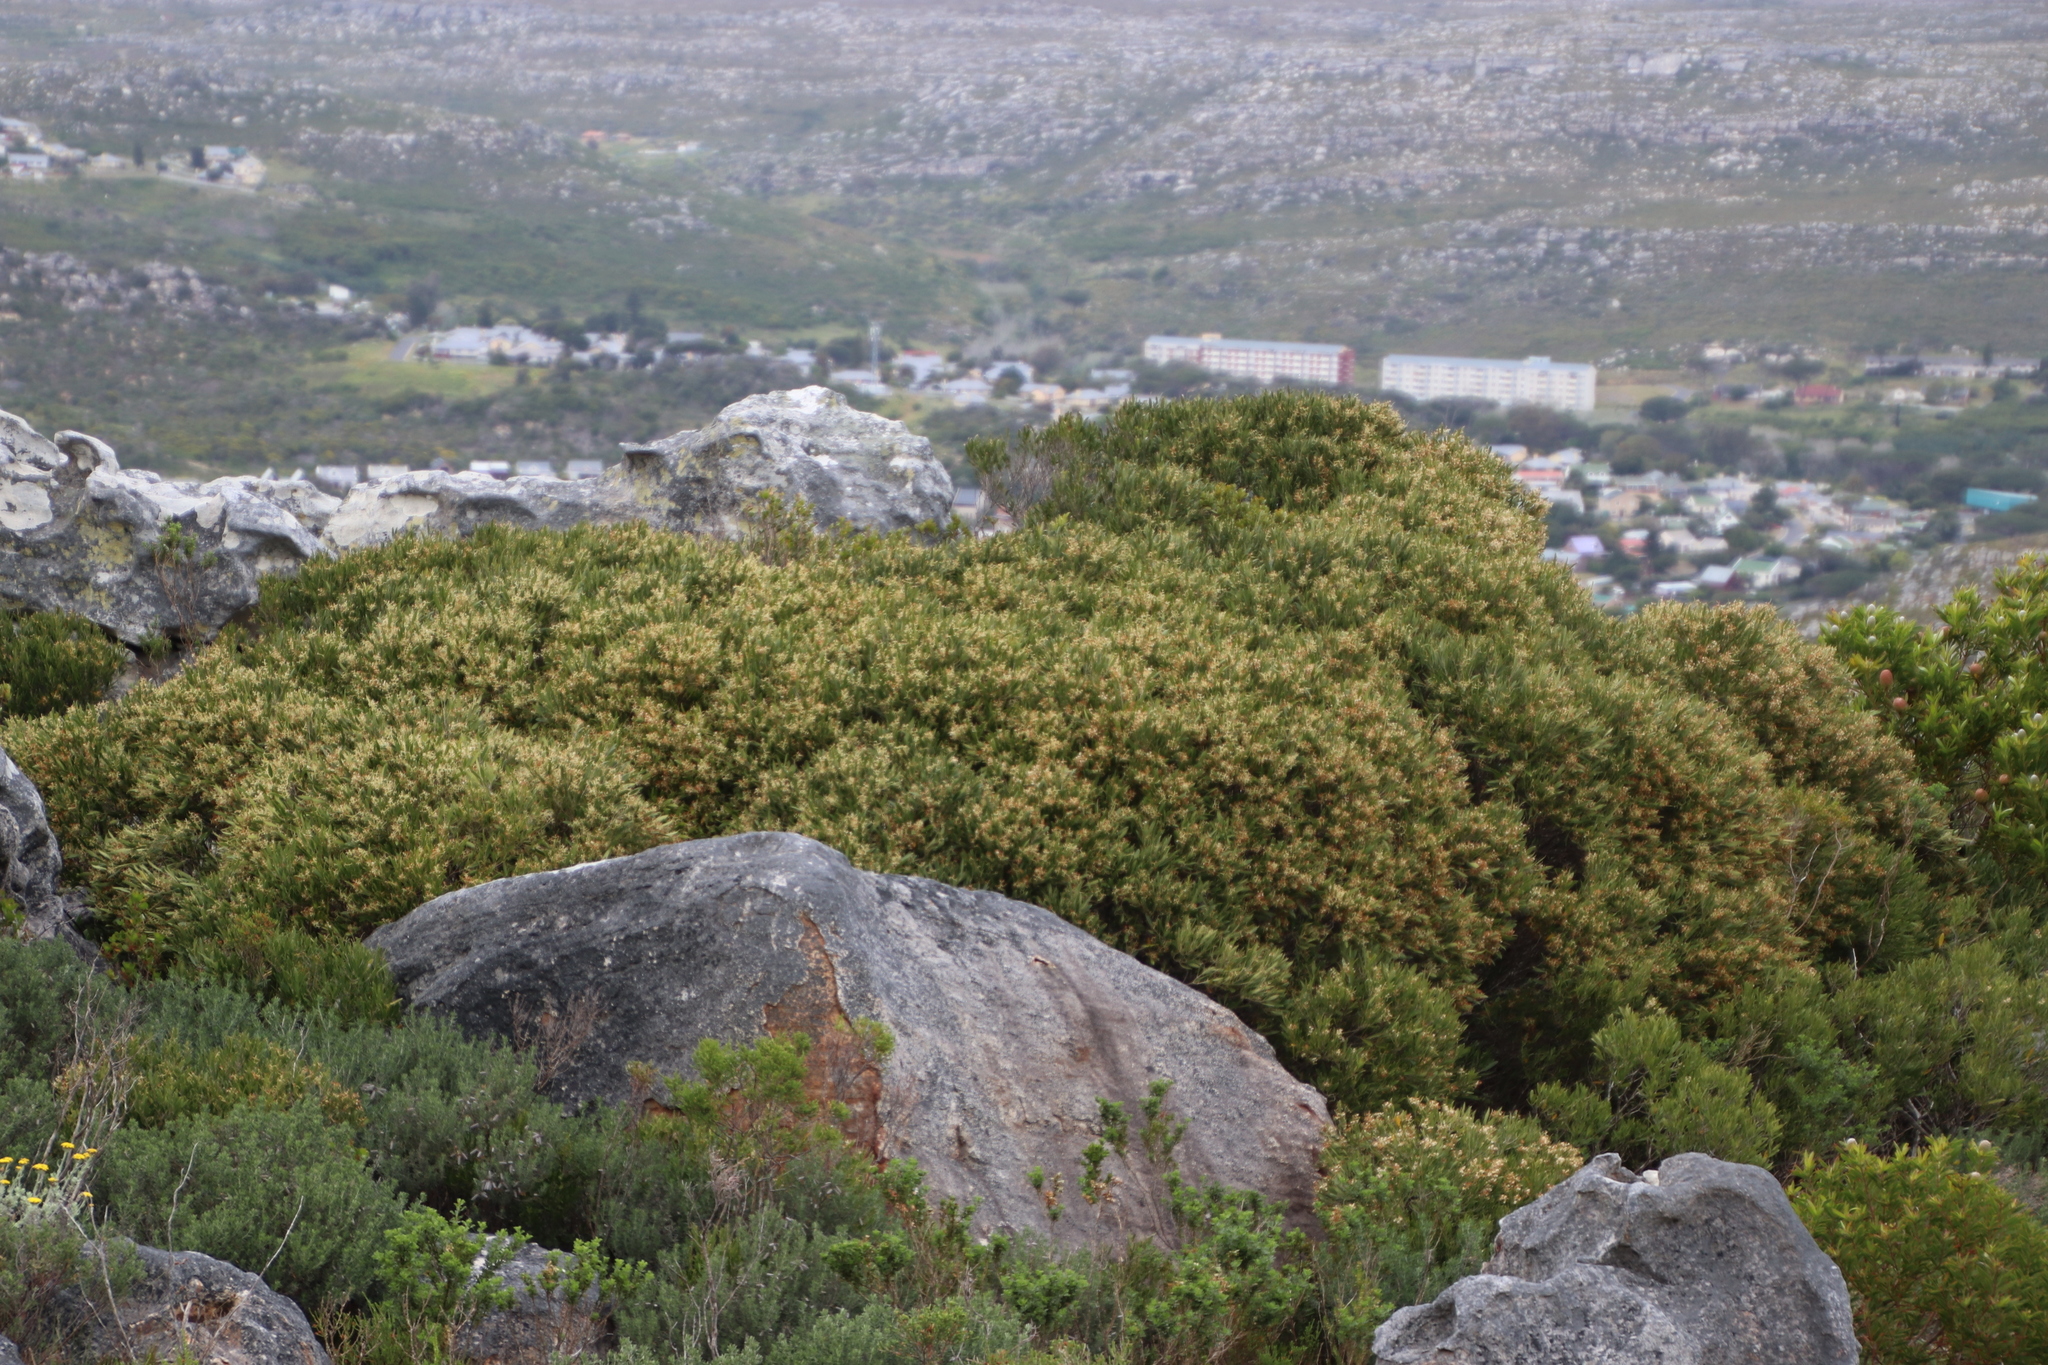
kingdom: Plantae
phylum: Tracheophyta
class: Magnoliopsida
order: Lamiales
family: Oleaceae
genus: Olea
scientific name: Olea exasperata
